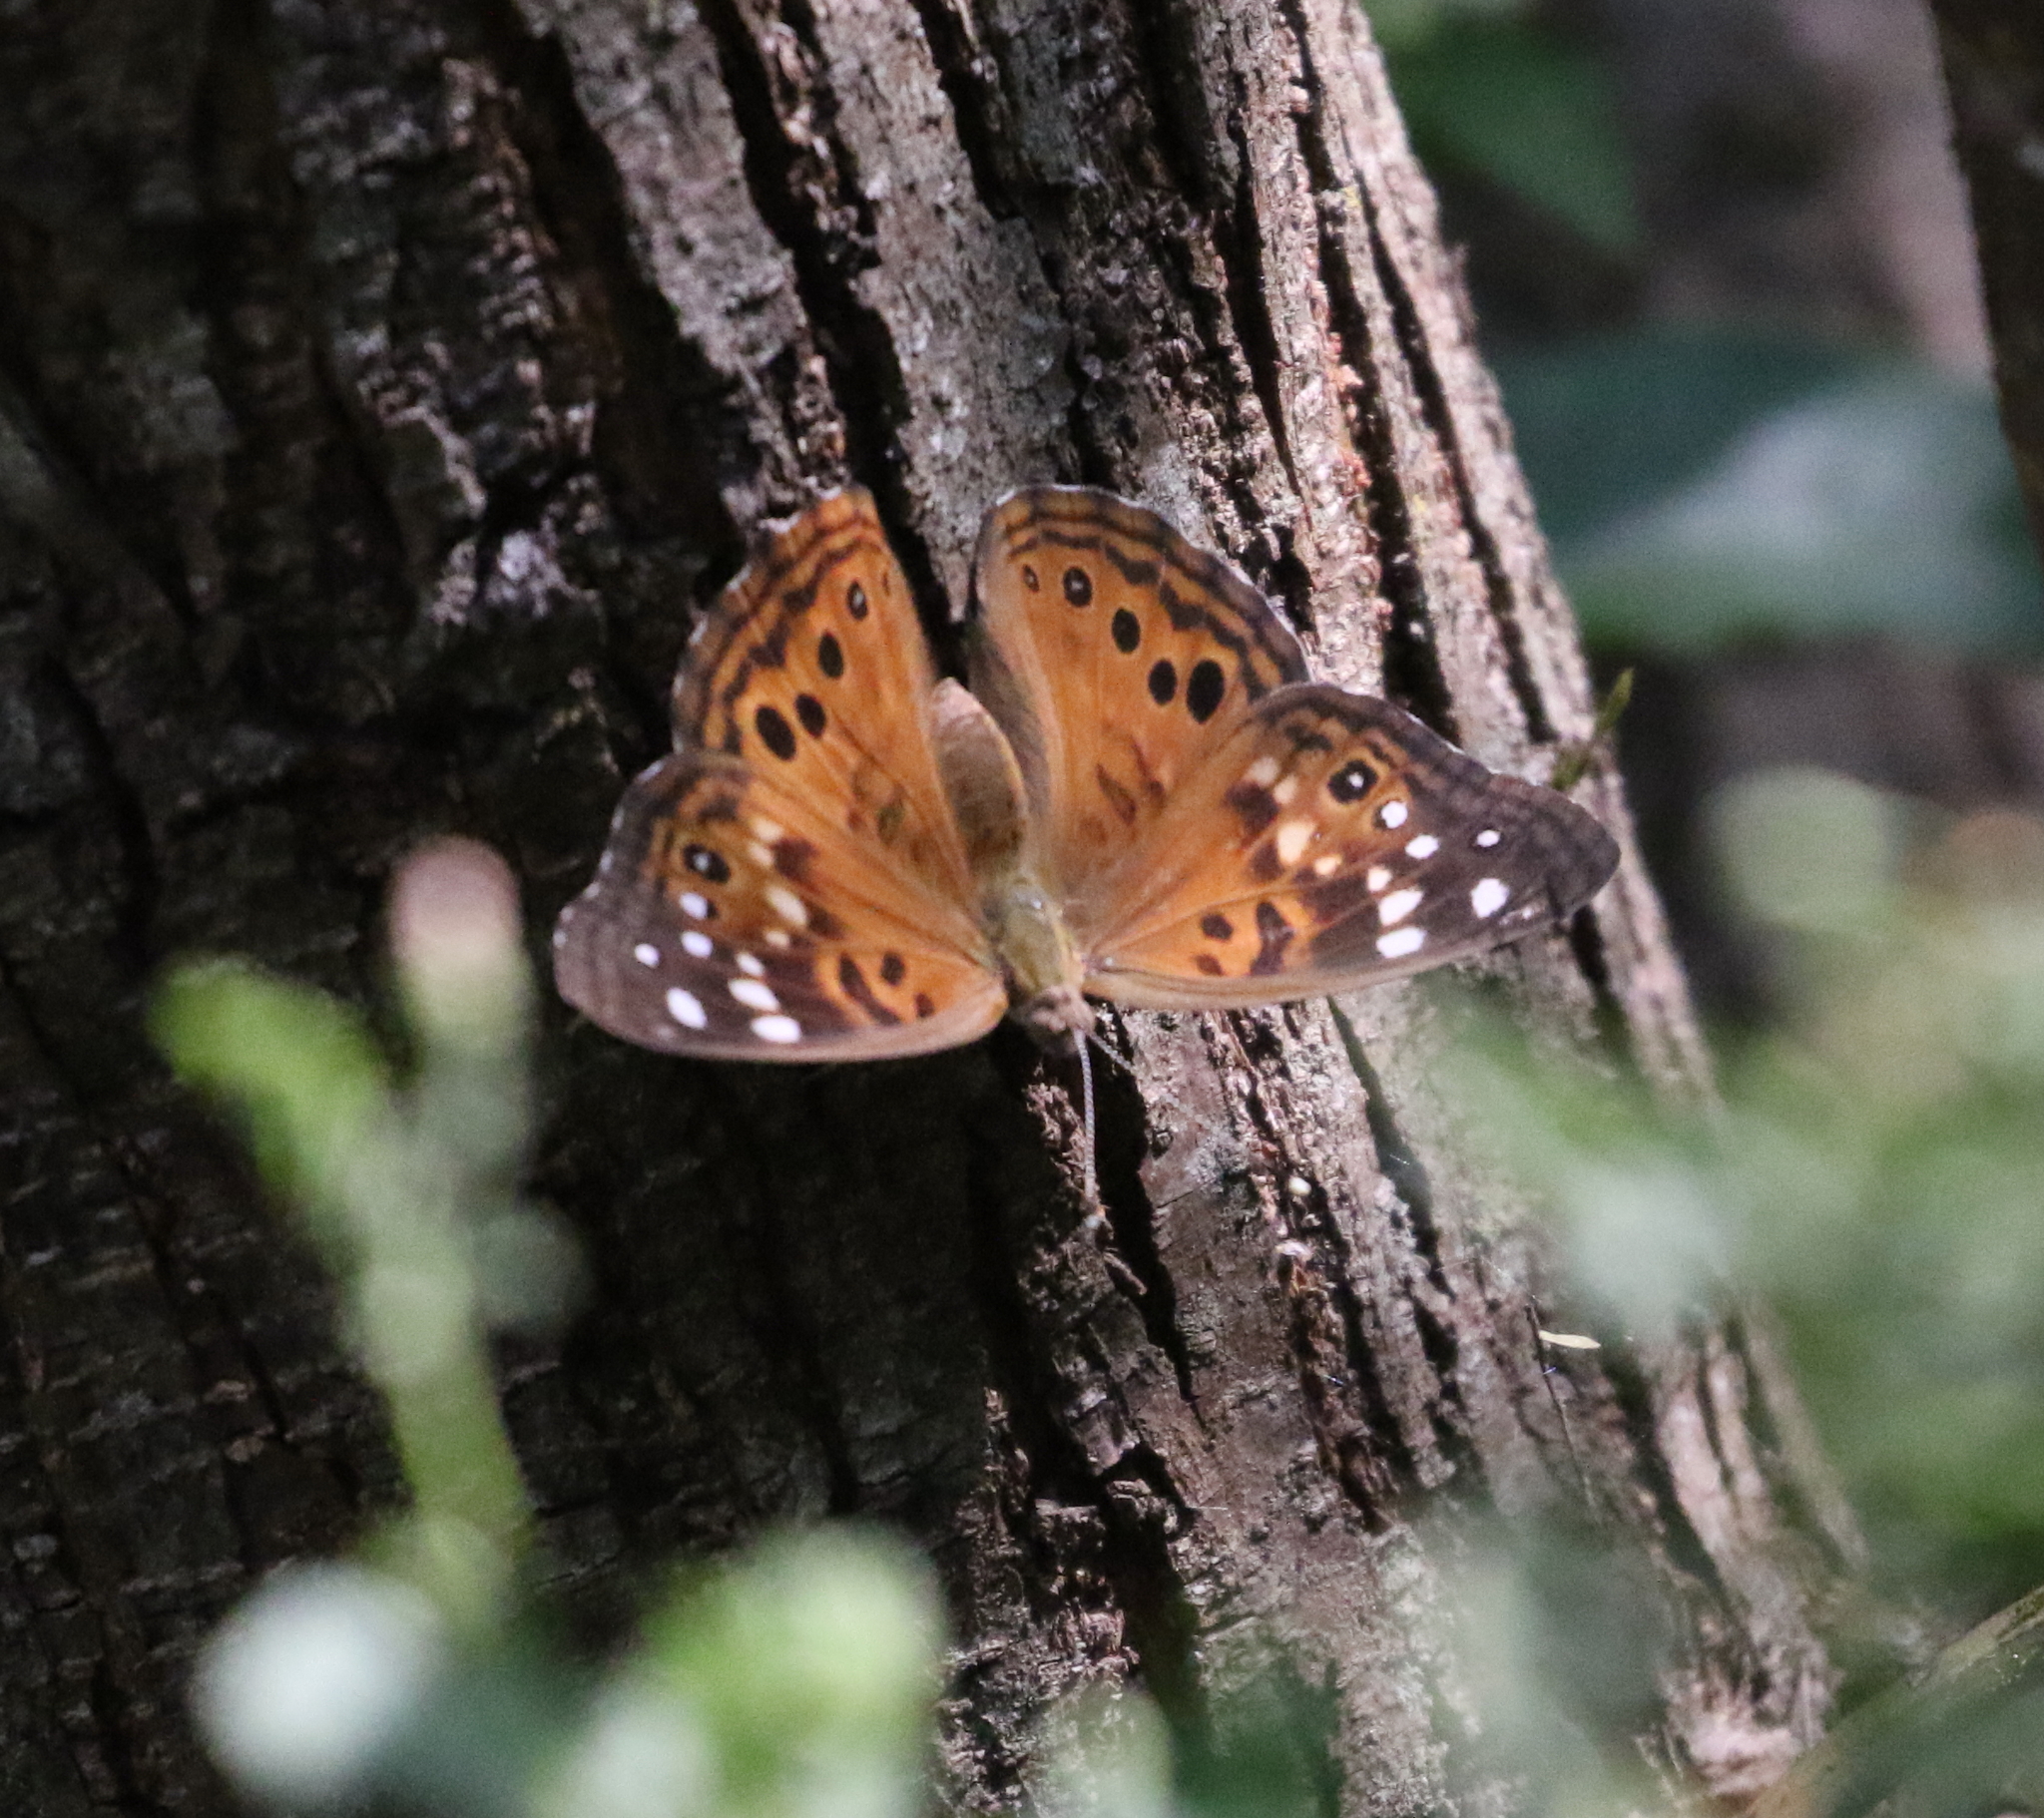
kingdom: Animalia
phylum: Arthropoda
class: Insecta
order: Lepidoptera
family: Nymphalidae
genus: Asterocampa
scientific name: Asterocampa celtis
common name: Hackberry emperor
